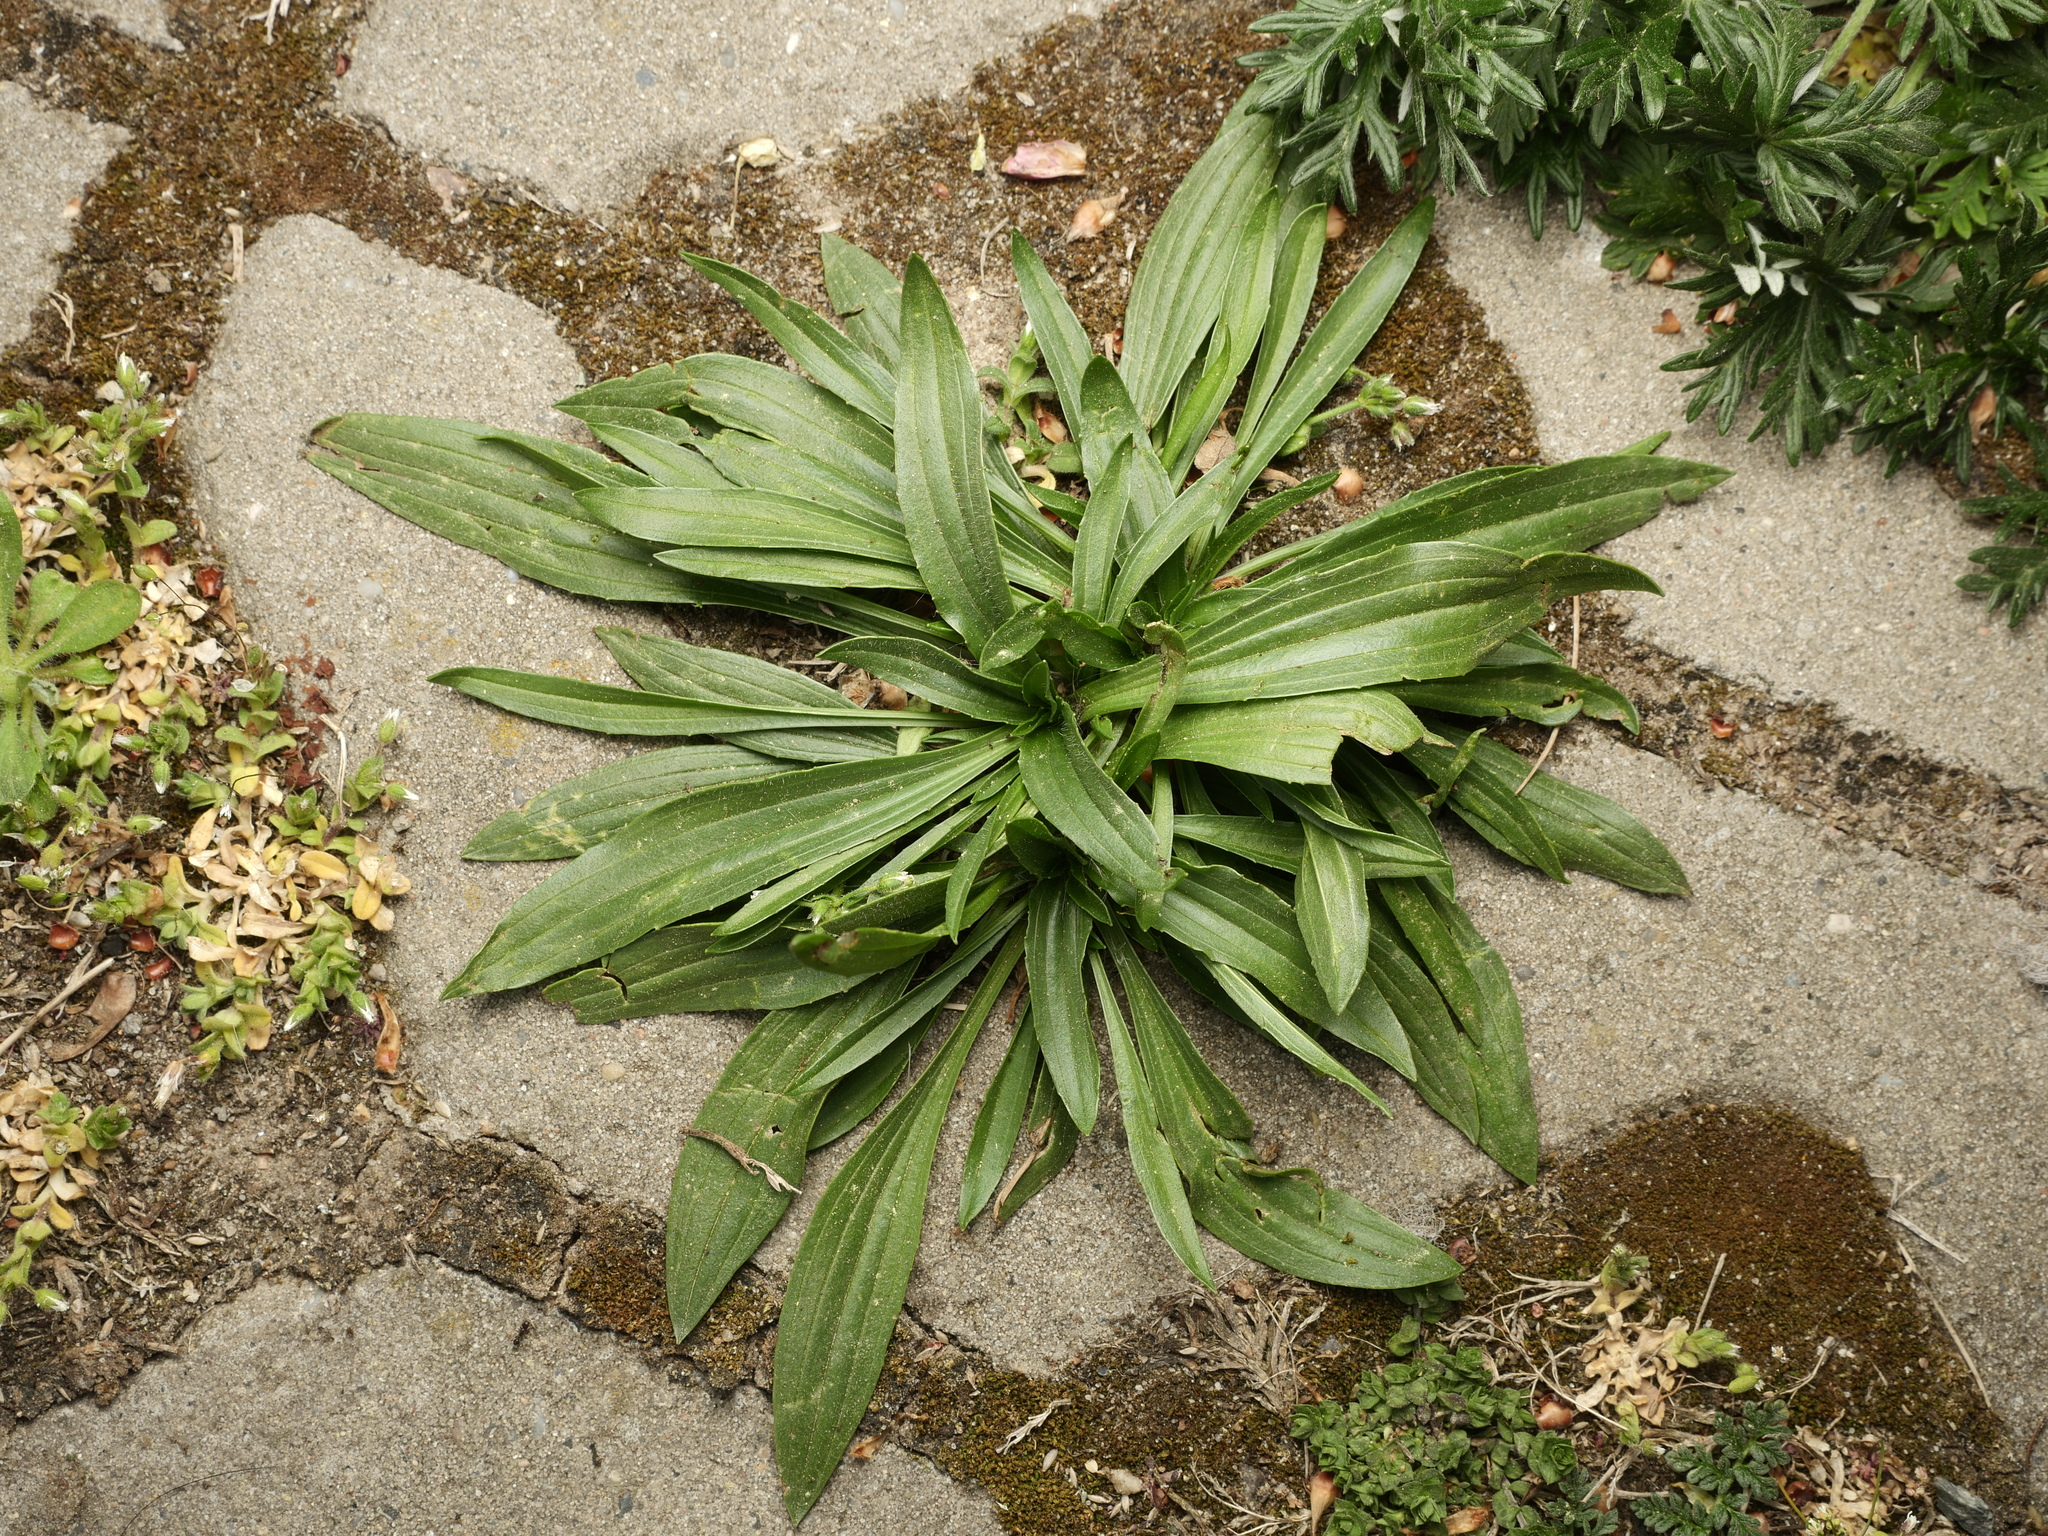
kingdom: Plantae
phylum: Tracheophyta
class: Magnoliopsida
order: Lamiales
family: Plantaginaceae
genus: Plantago
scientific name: Plantago lanceolata
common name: Ribwort plantain
